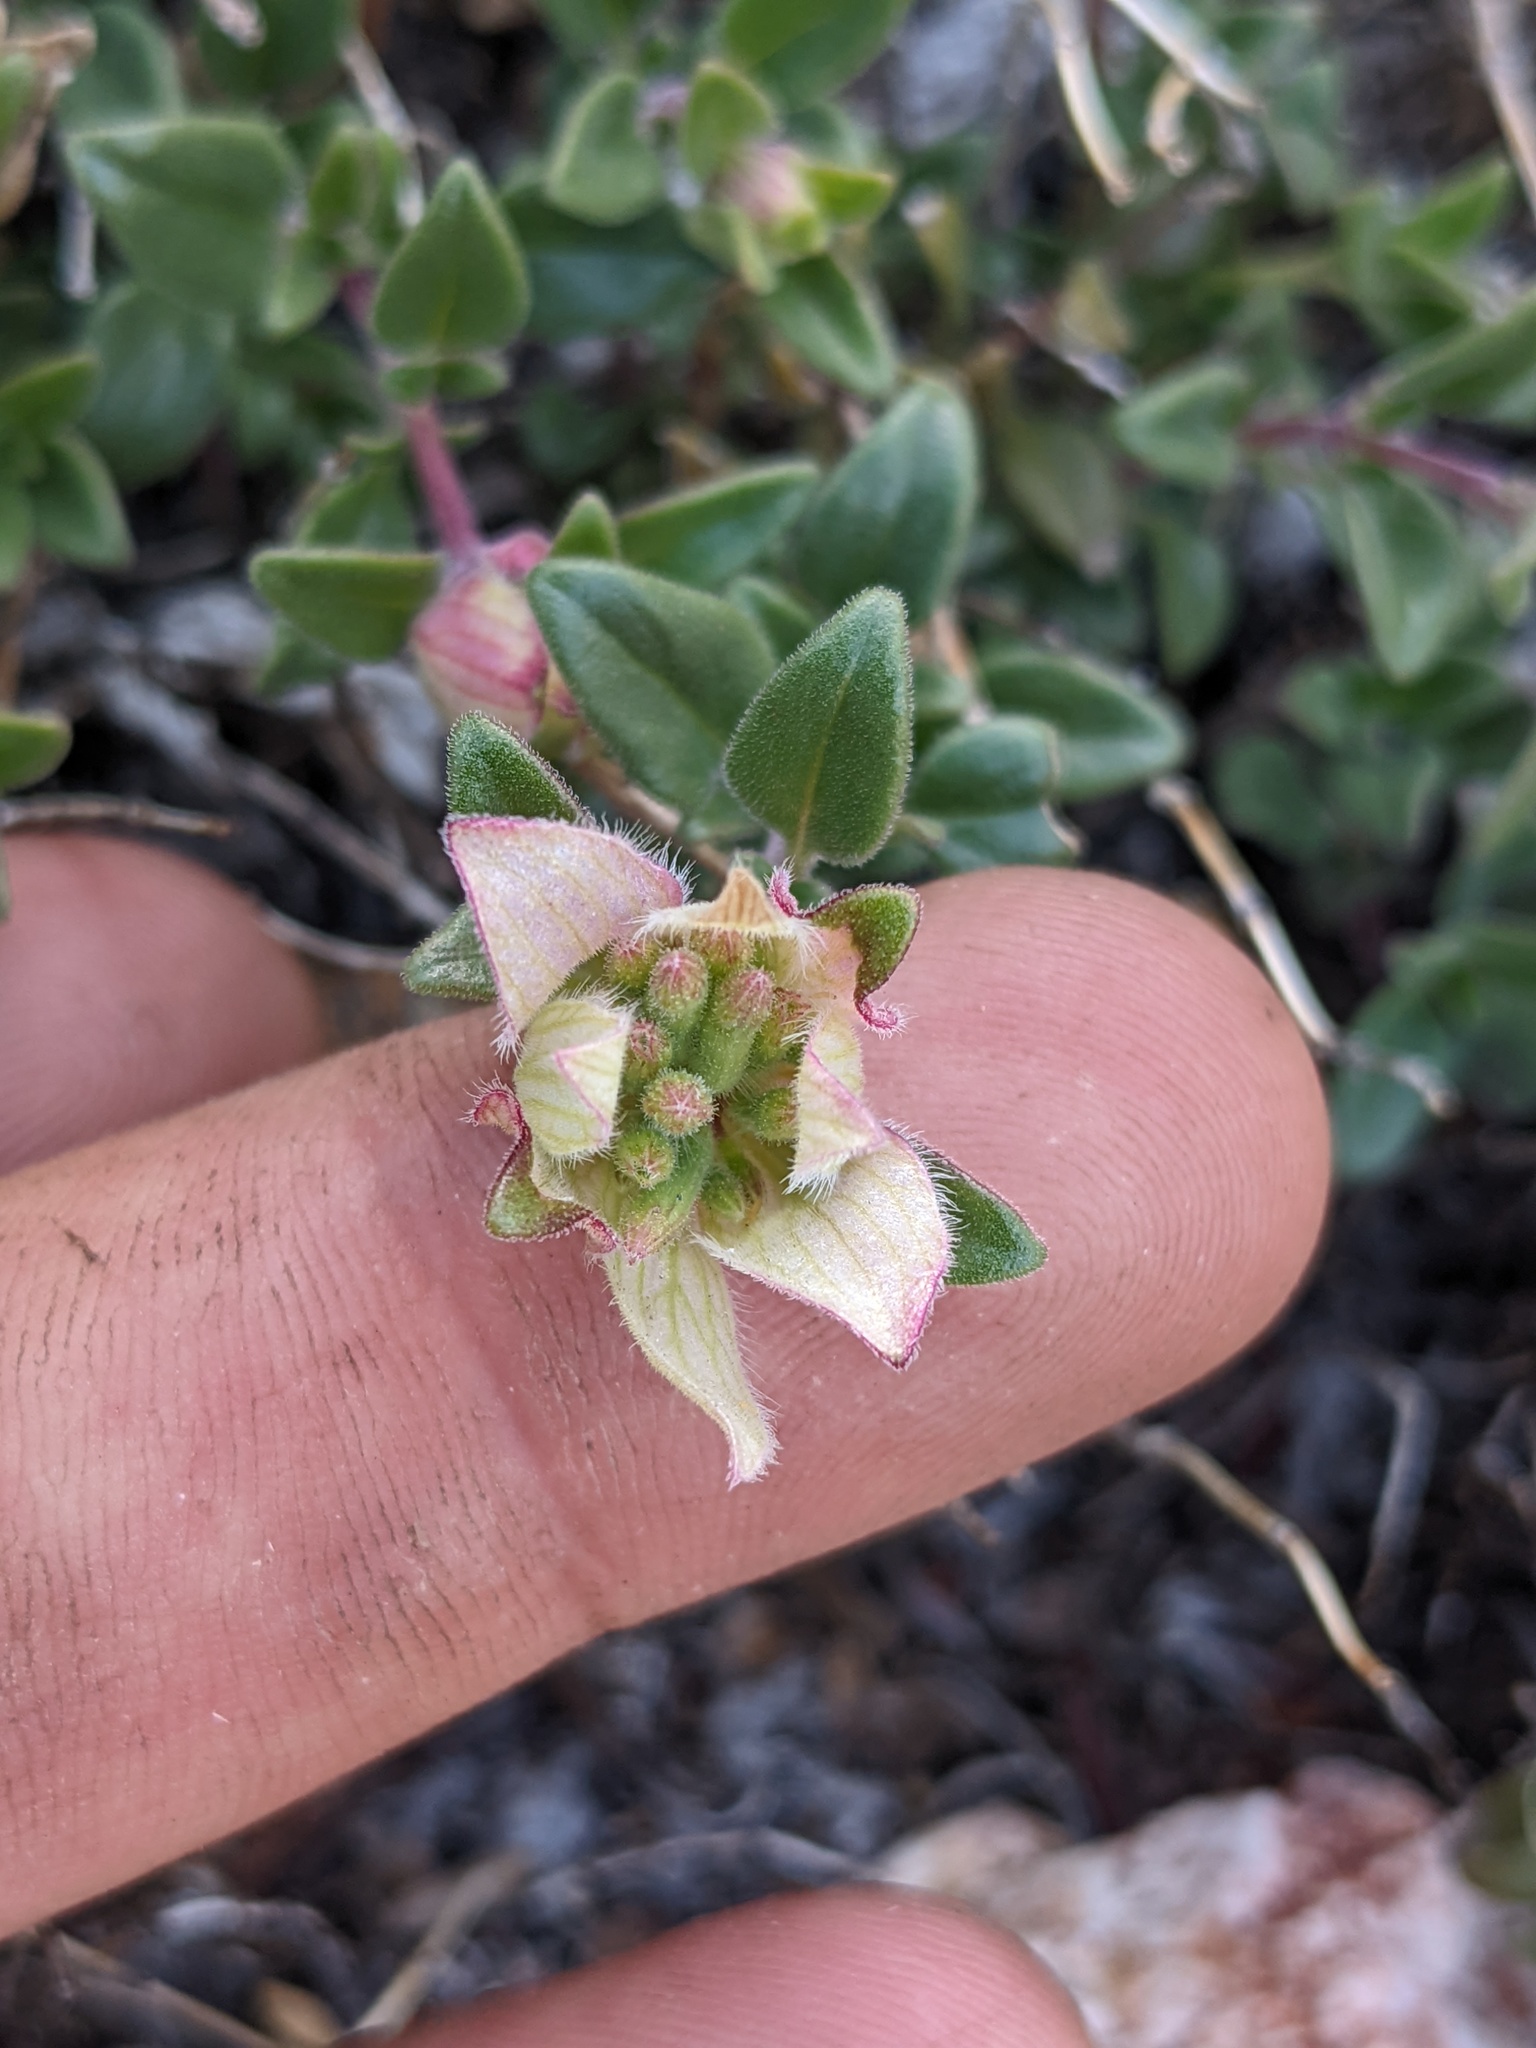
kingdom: Plantae
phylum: Tracheophyta
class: Magnoliopsida
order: Lamiales
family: Lamiaceae
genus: Monardella
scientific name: Monardella nana
